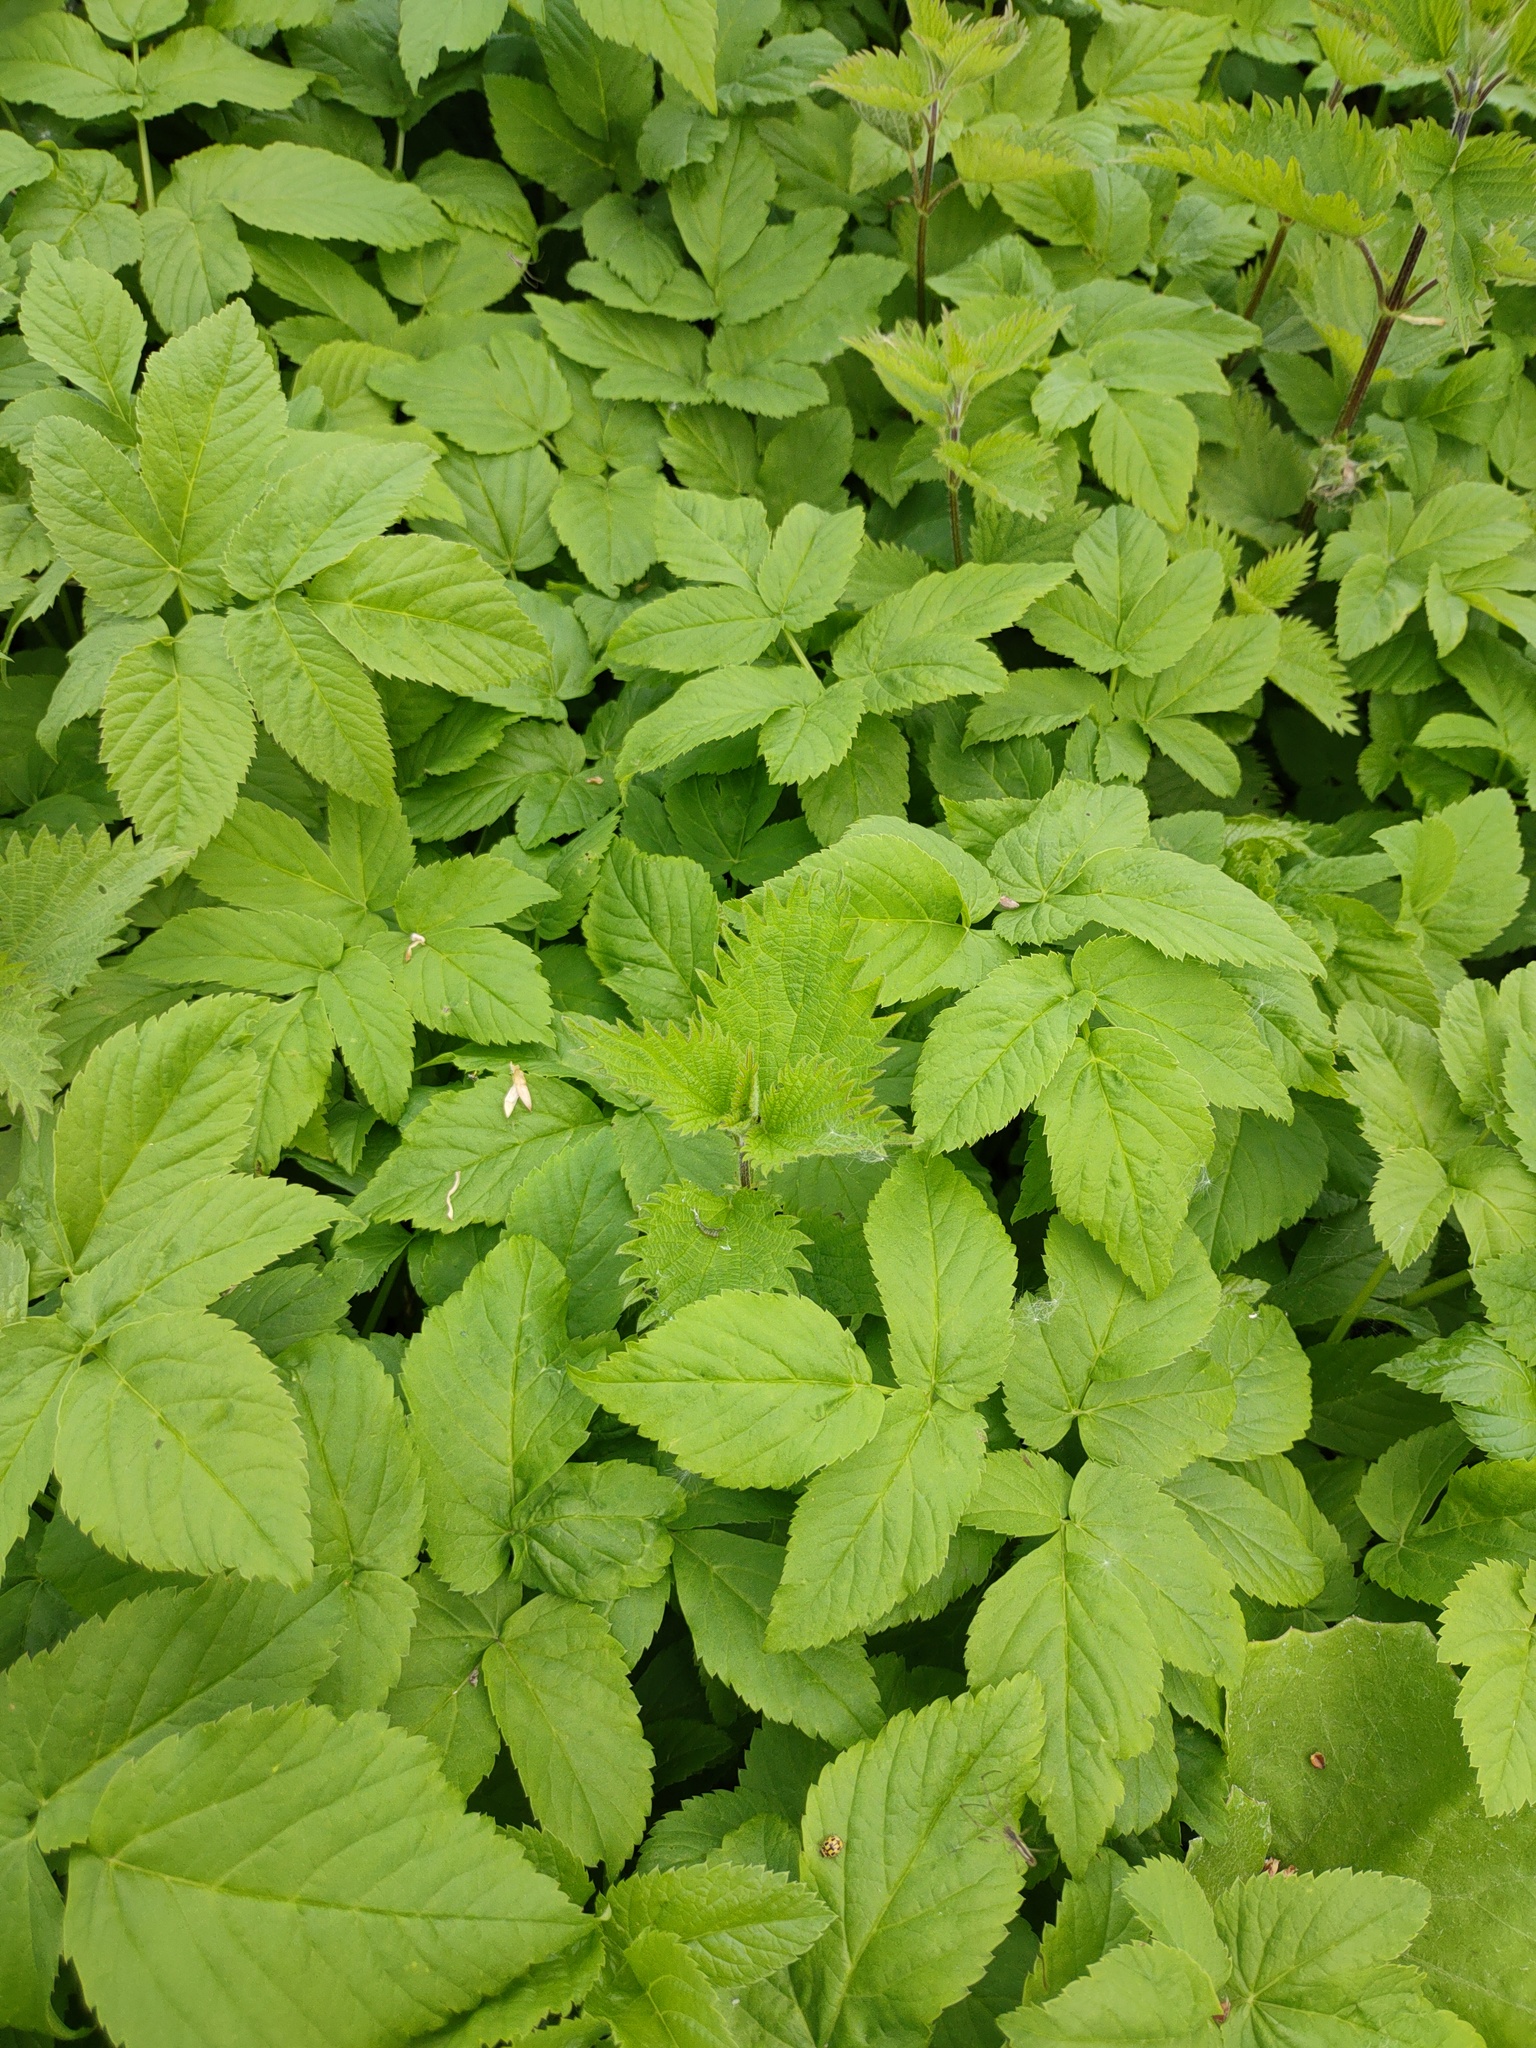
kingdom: Plantae
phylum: Tracheophyta
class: Magnoliopsida
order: Apiales
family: Apiaceae
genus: Aegopodium
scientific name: Aegopodium podagraria
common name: Ground-elder
